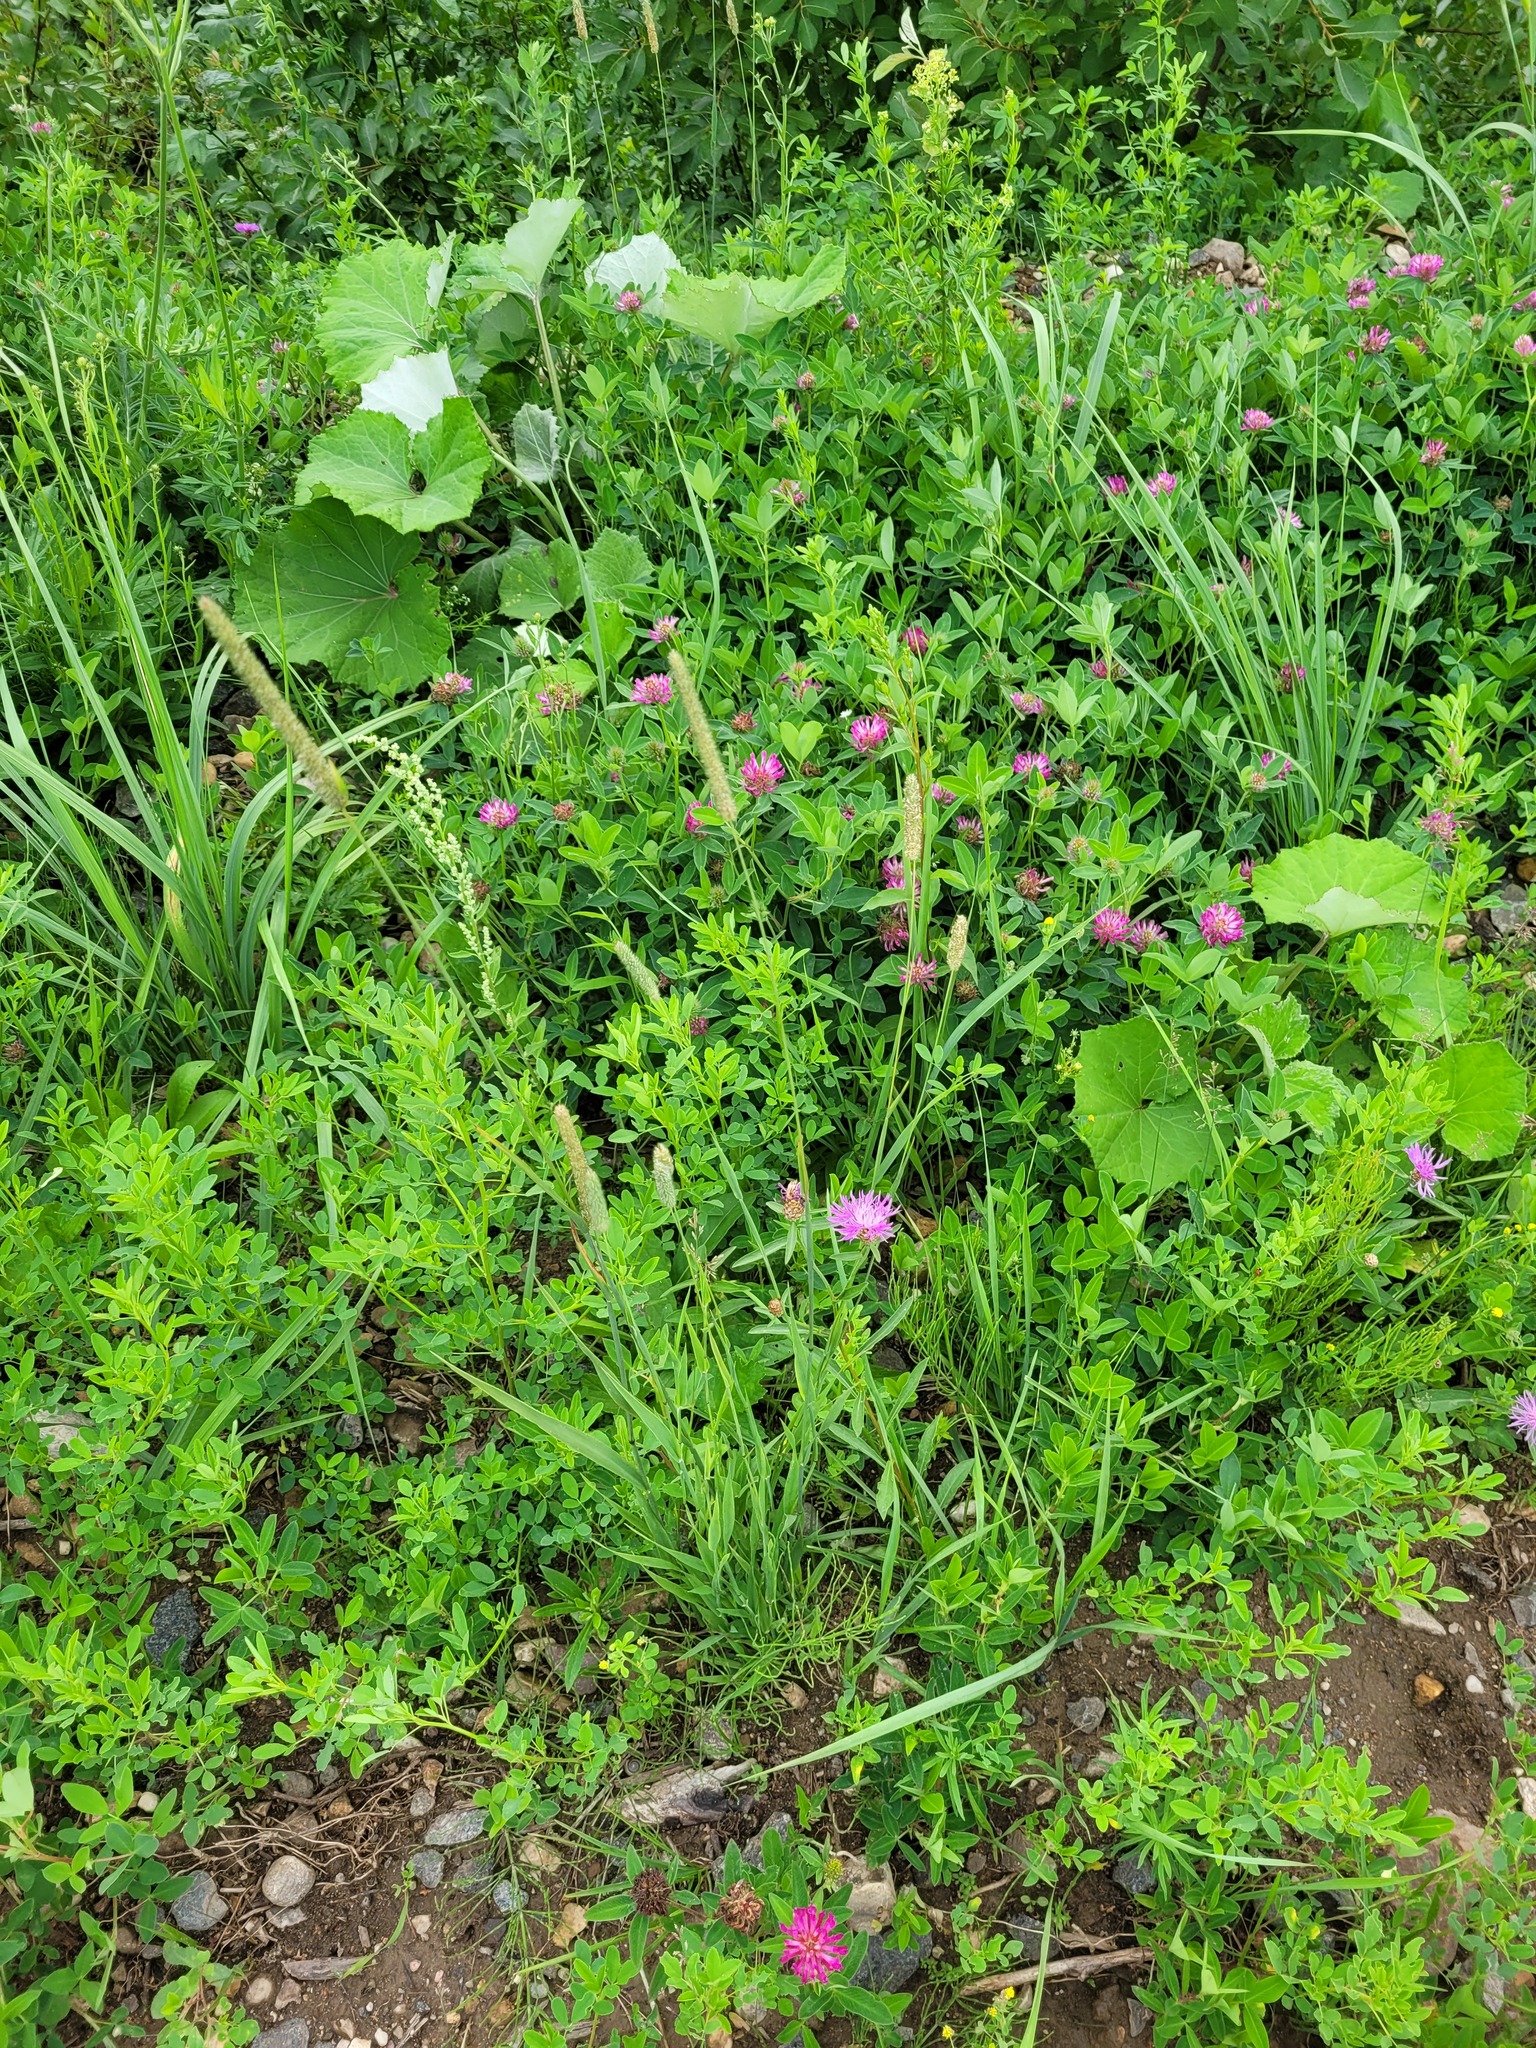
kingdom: Plantae
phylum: Tracheophyta
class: Liliopsida
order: Poales
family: Poaceae
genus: Phleum
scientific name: Phleum pratense
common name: Timothy grass
